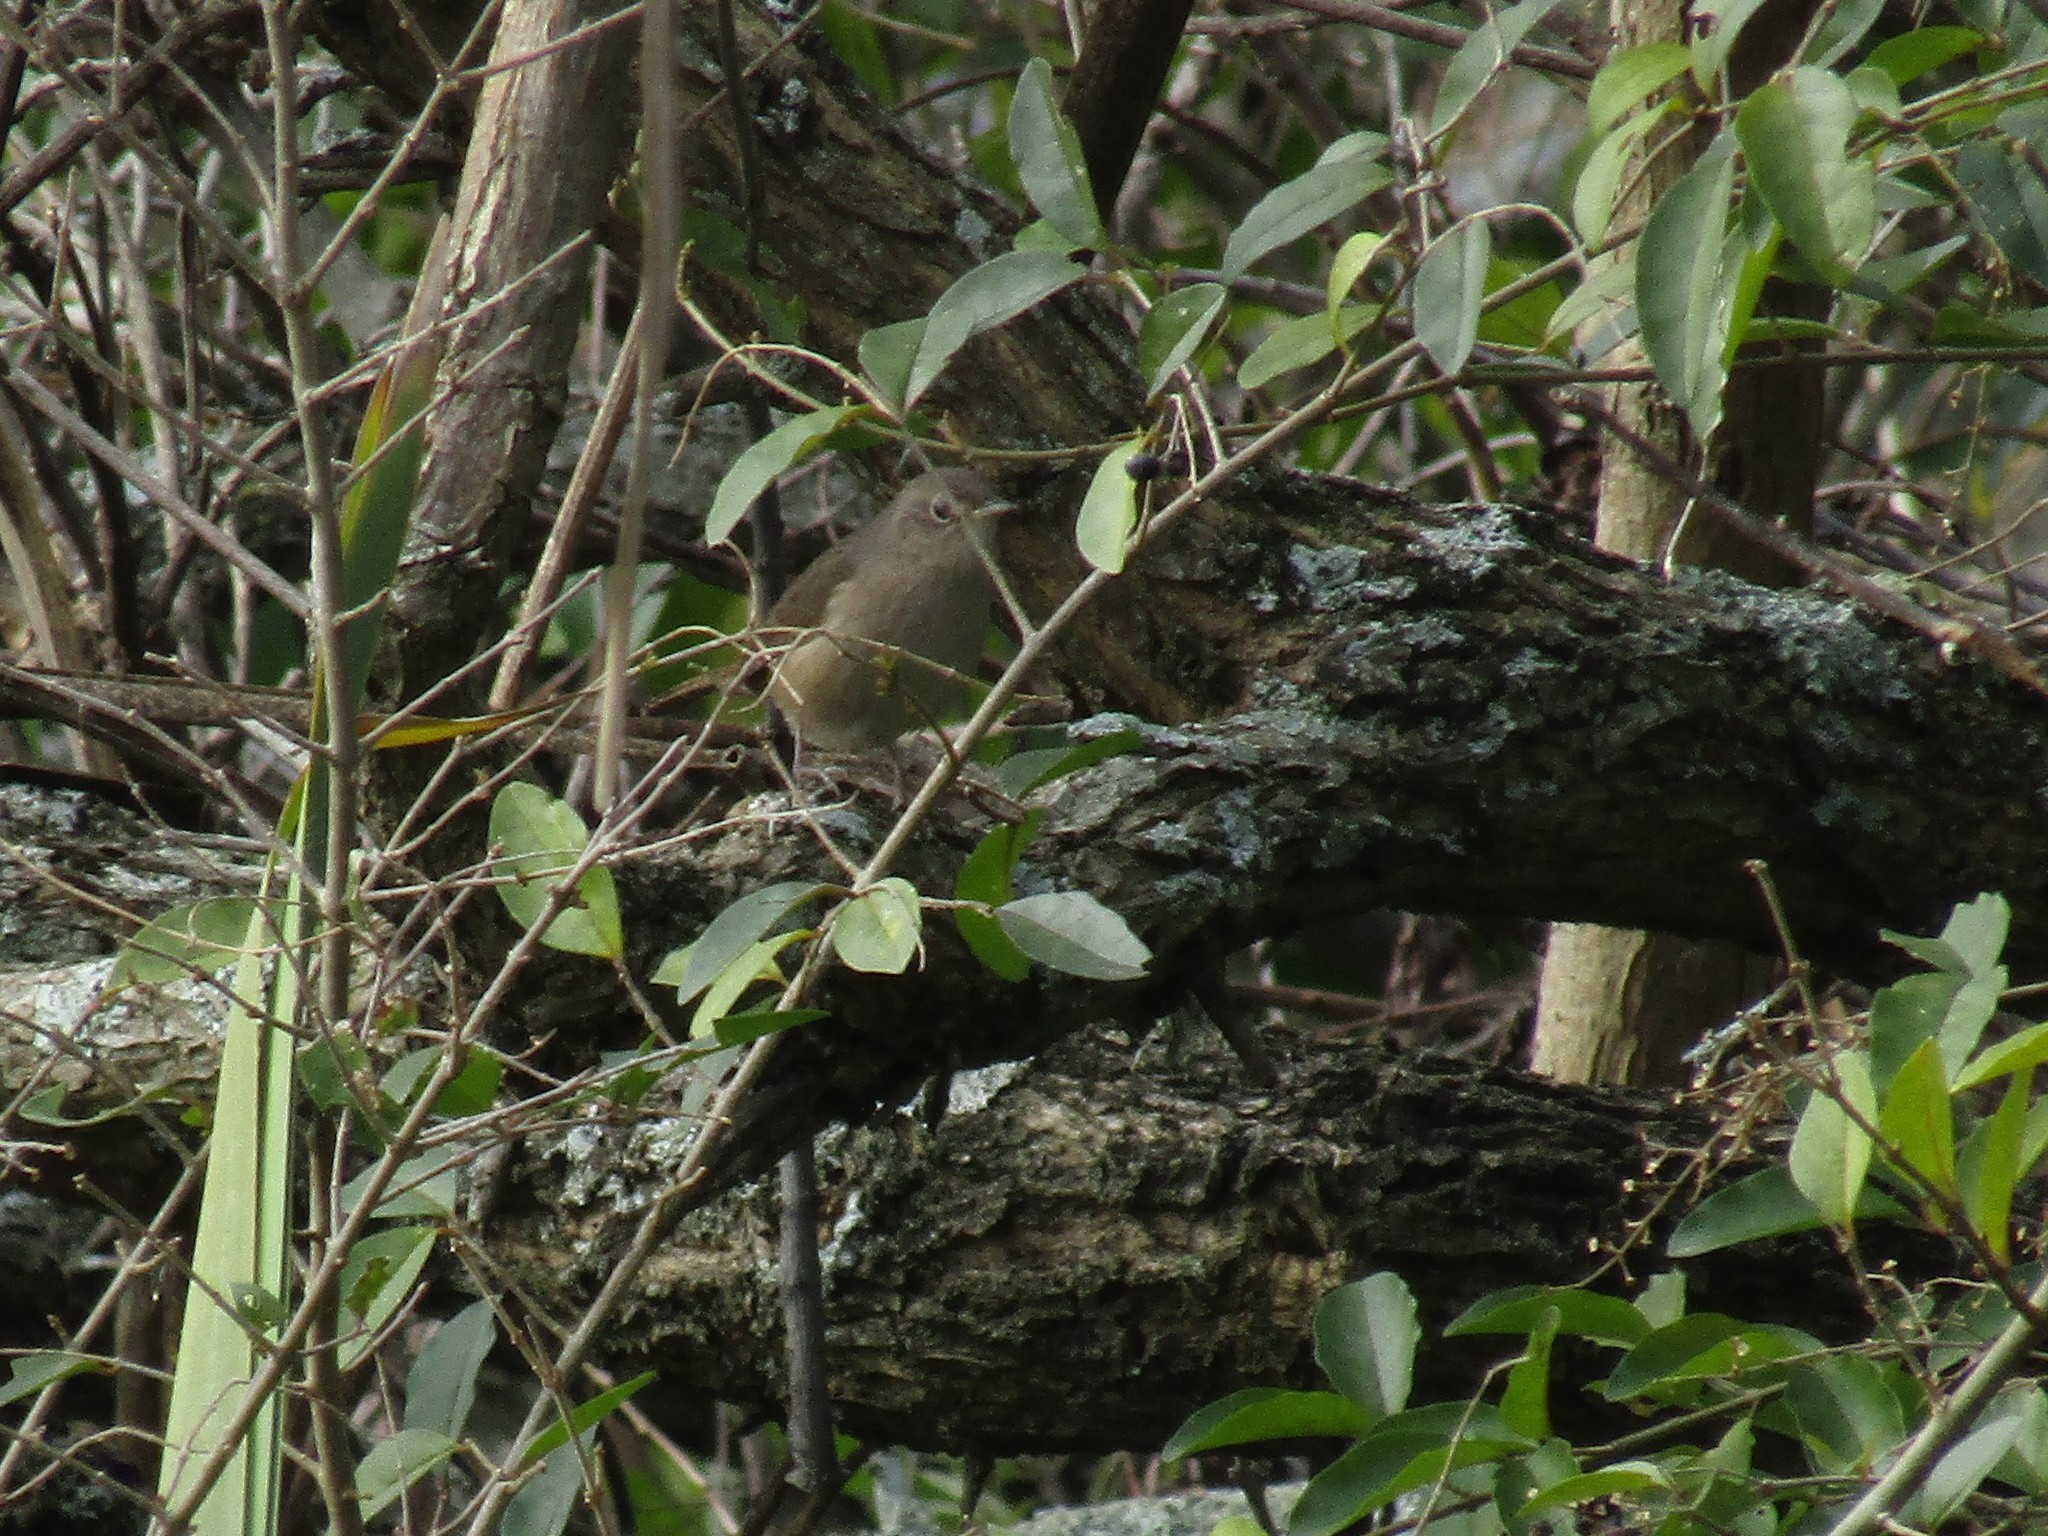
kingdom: Animalia
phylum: Chordata
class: Aves
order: Passeriformes
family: Troglodytidae
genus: Troglodytes
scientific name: Troglodytes aedon
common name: House wren
